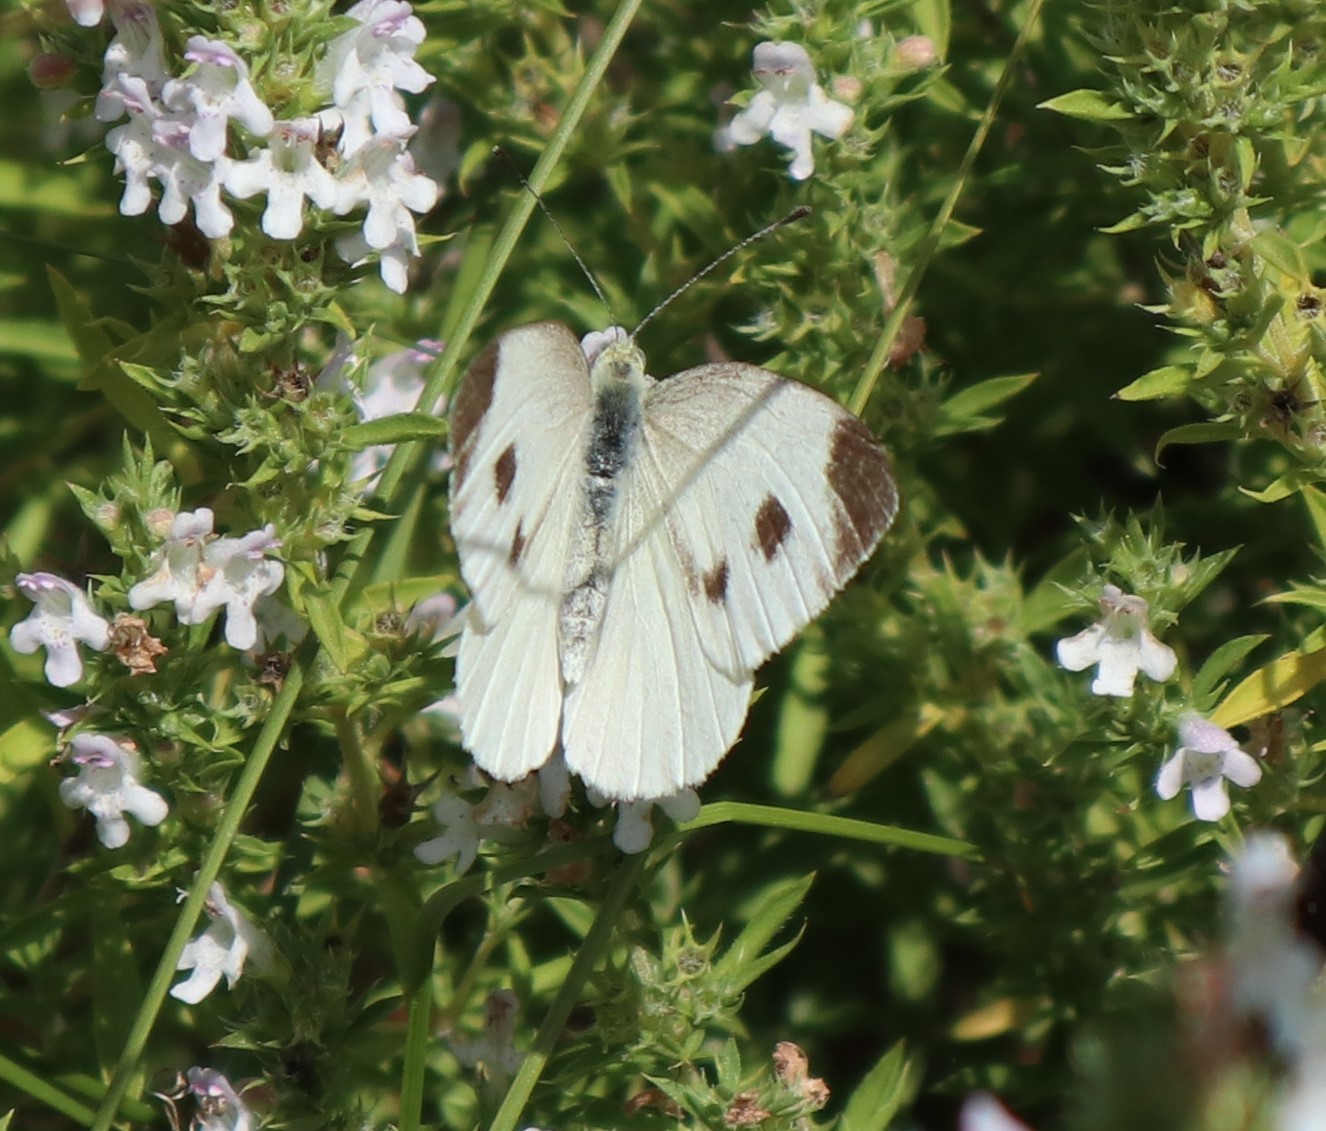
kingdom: Animalia
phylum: Arthropoda
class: Insecta
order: Lepidoptera
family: Pieridae
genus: Pieris
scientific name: Pieris mannii
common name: Southern small white
